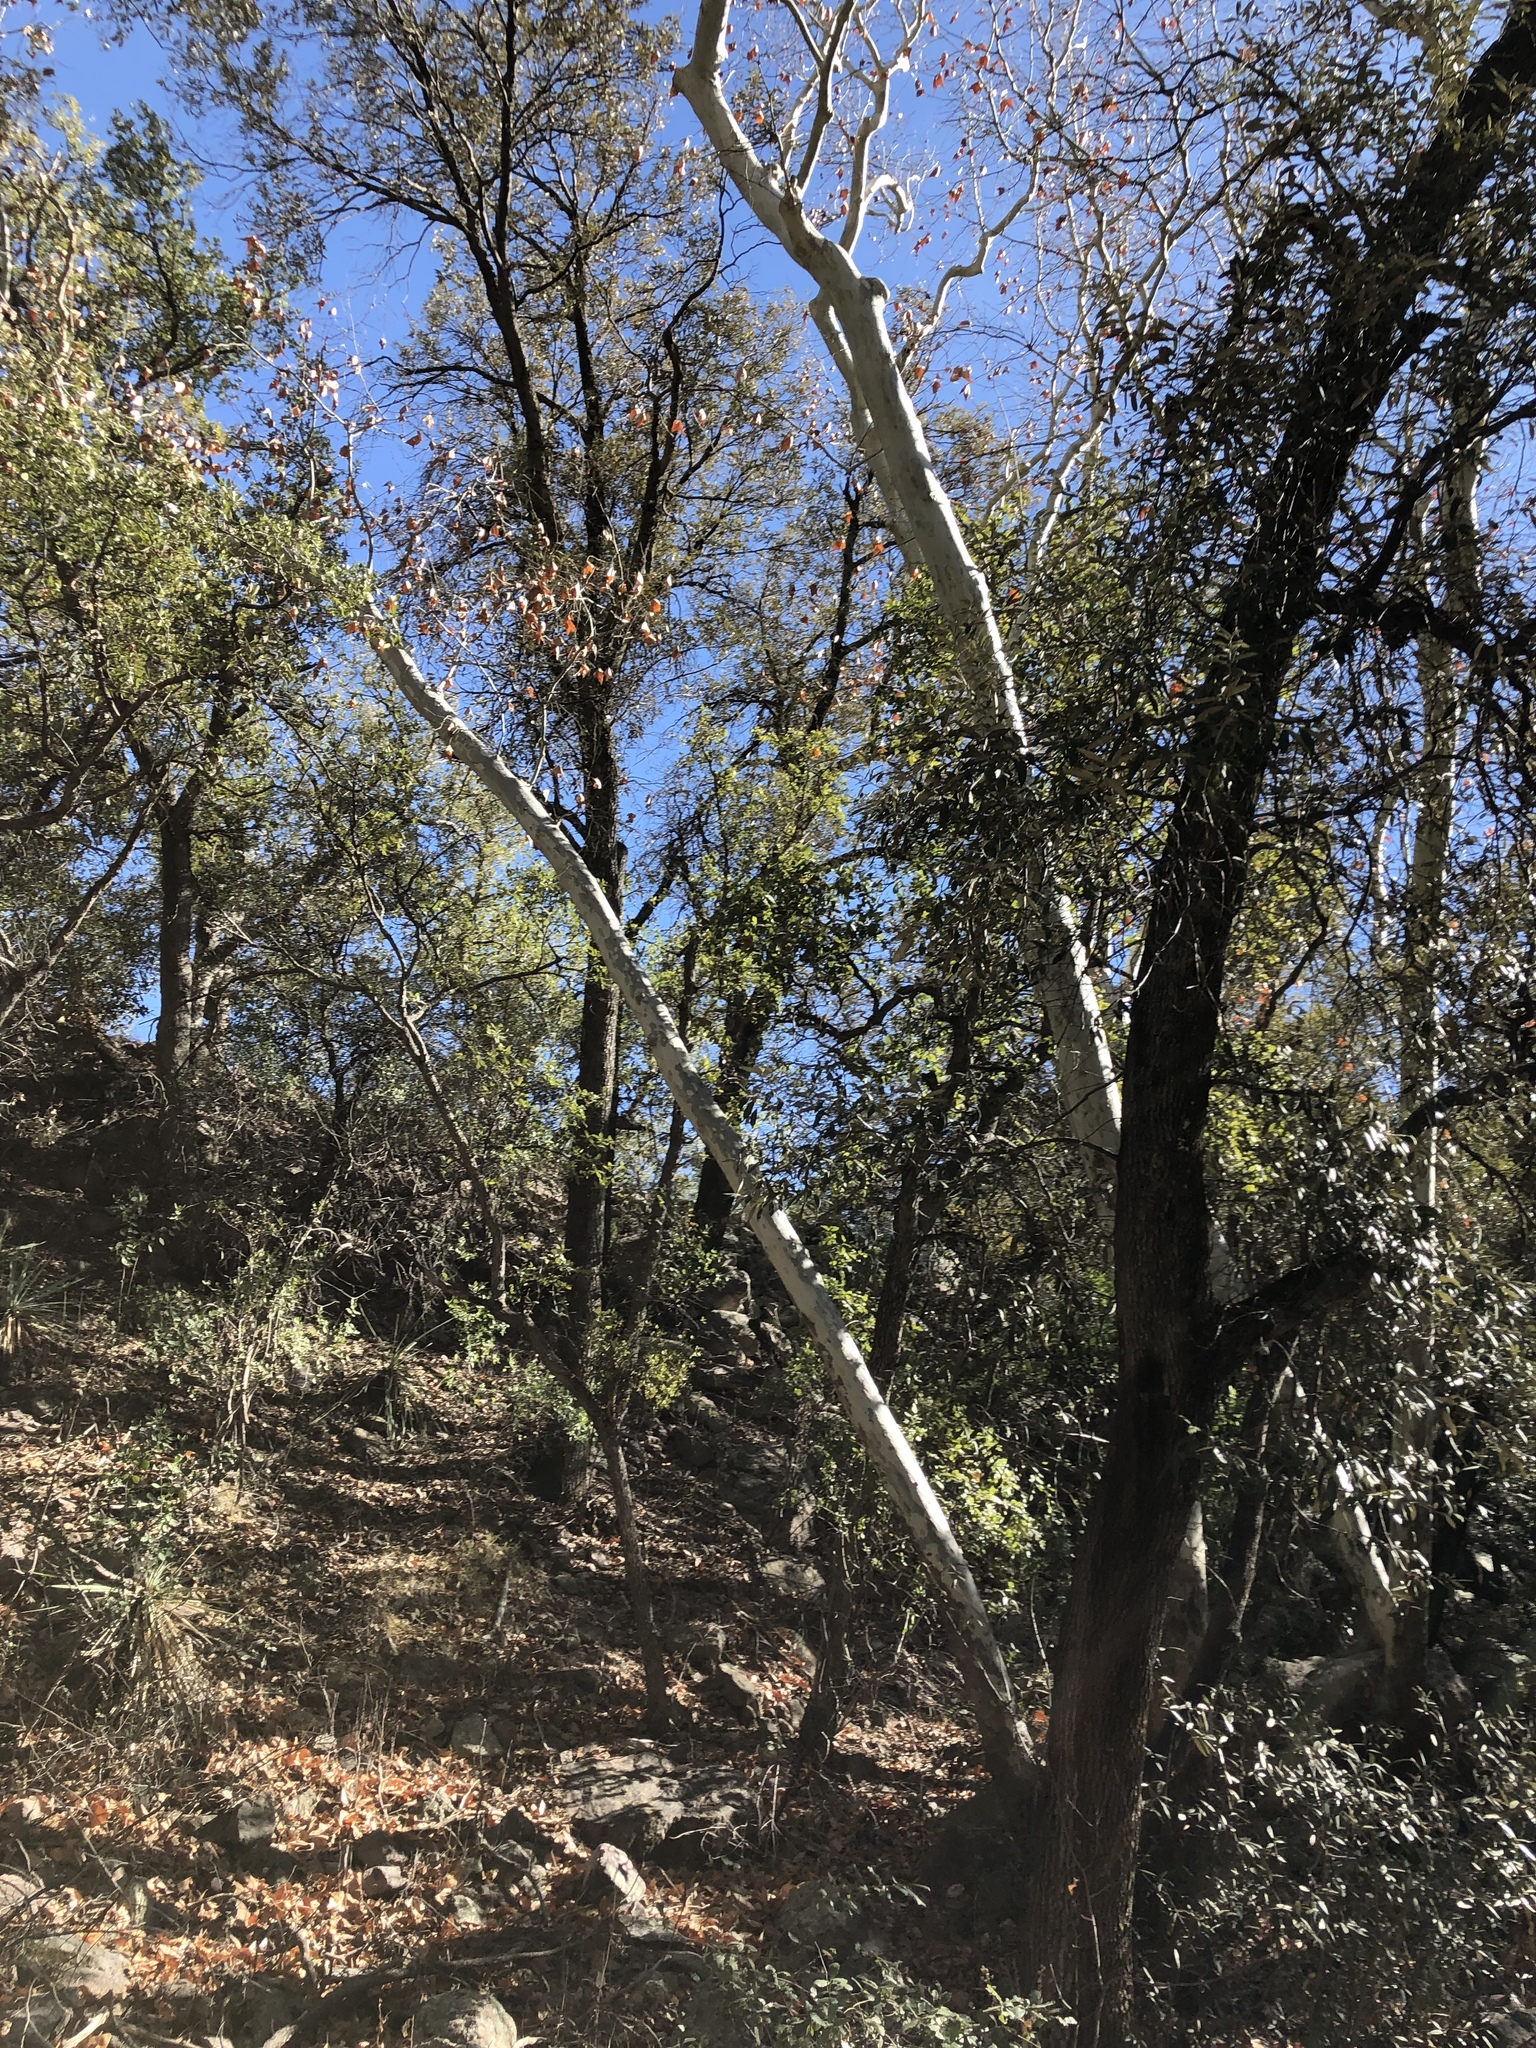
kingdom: Plantae
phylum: Tracheophyta
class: Magnoliopsida
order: Proteales
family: Platanaceae
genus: Platanus
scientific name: Platanus wrightii
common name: Arizona sycamore
